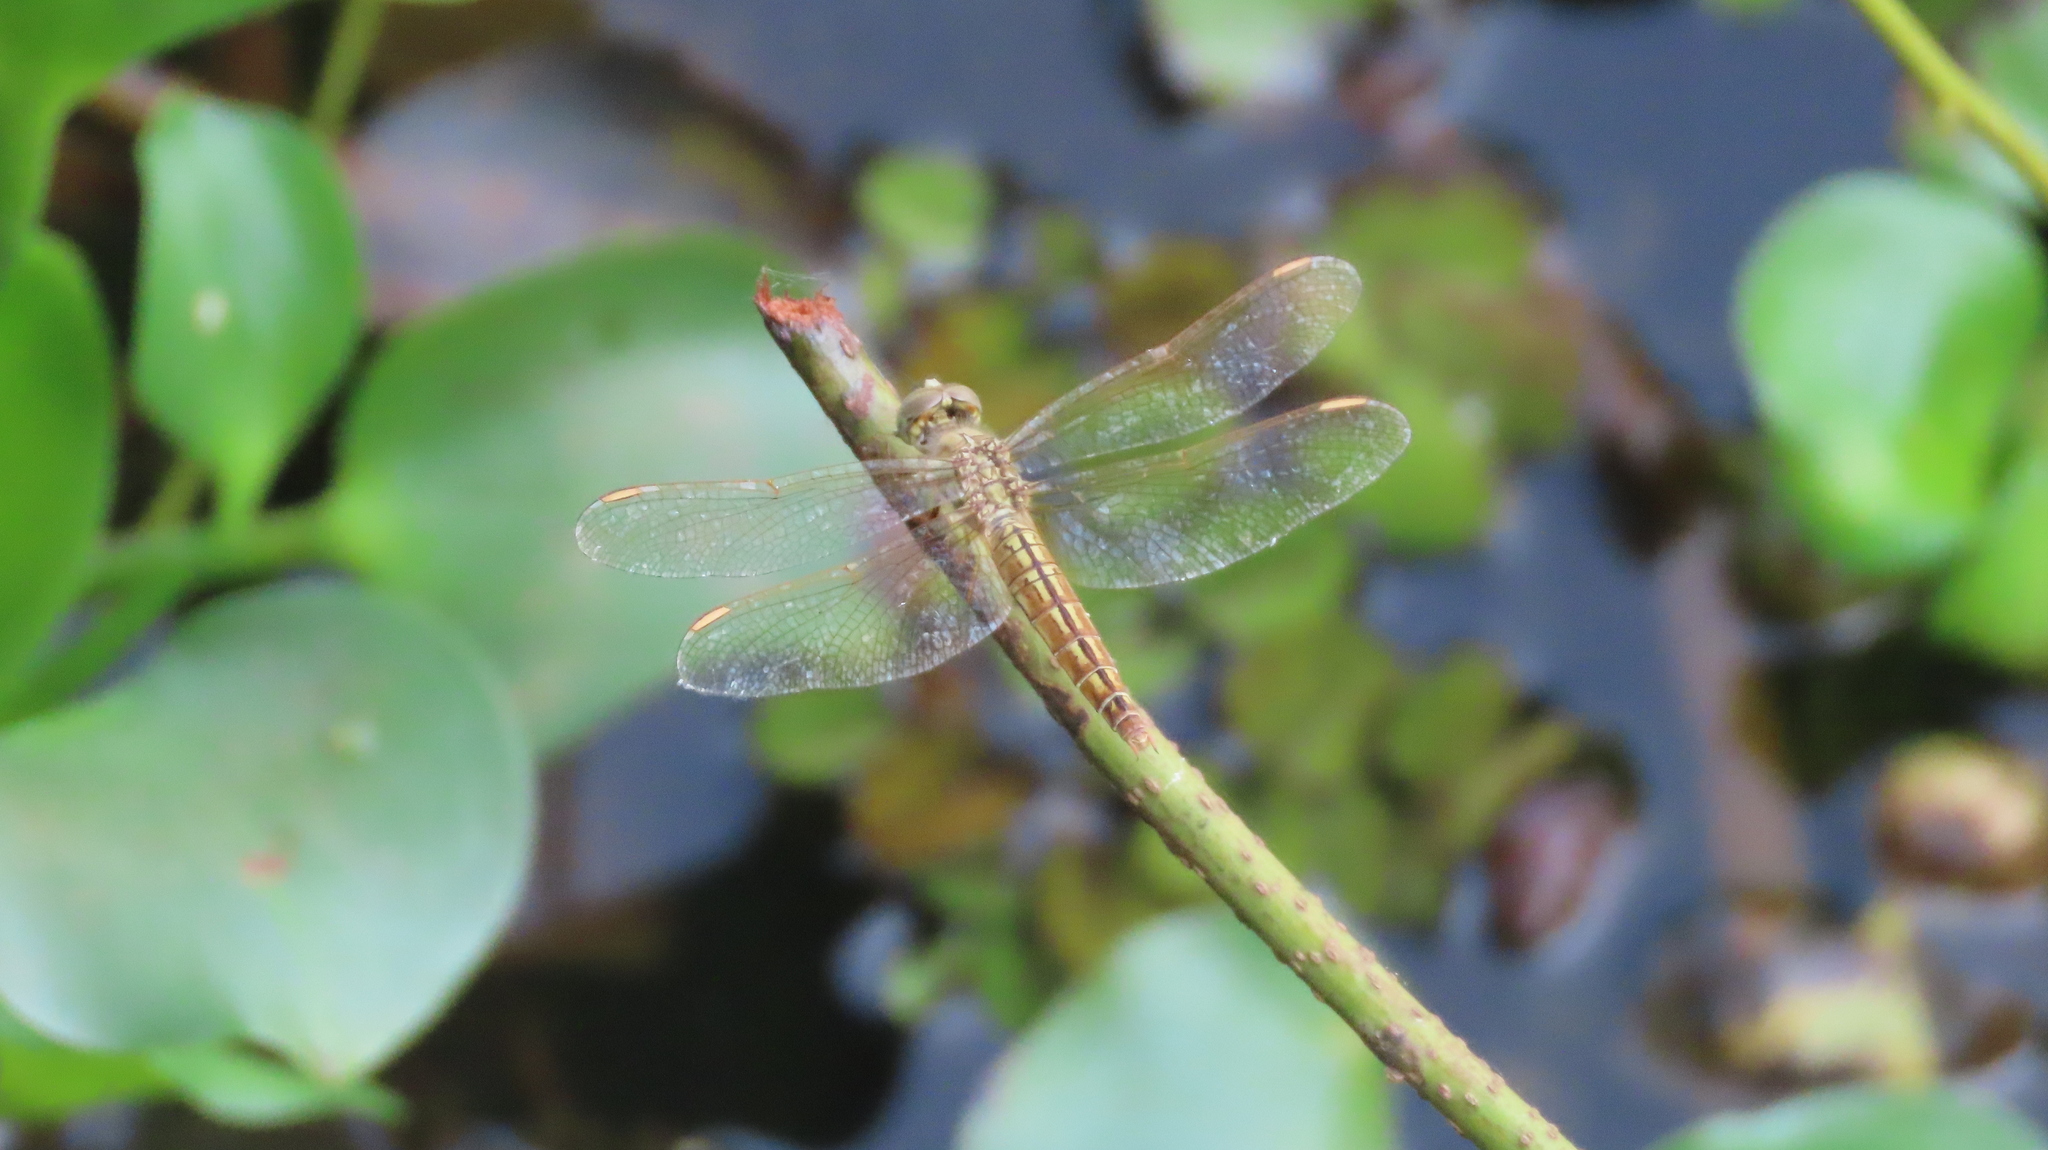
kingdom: Animalia
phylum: Arthropoda
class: Insecta
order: Odonata
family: Libellulidae
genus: Brachythemis
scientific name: Brachythemis contaminata
